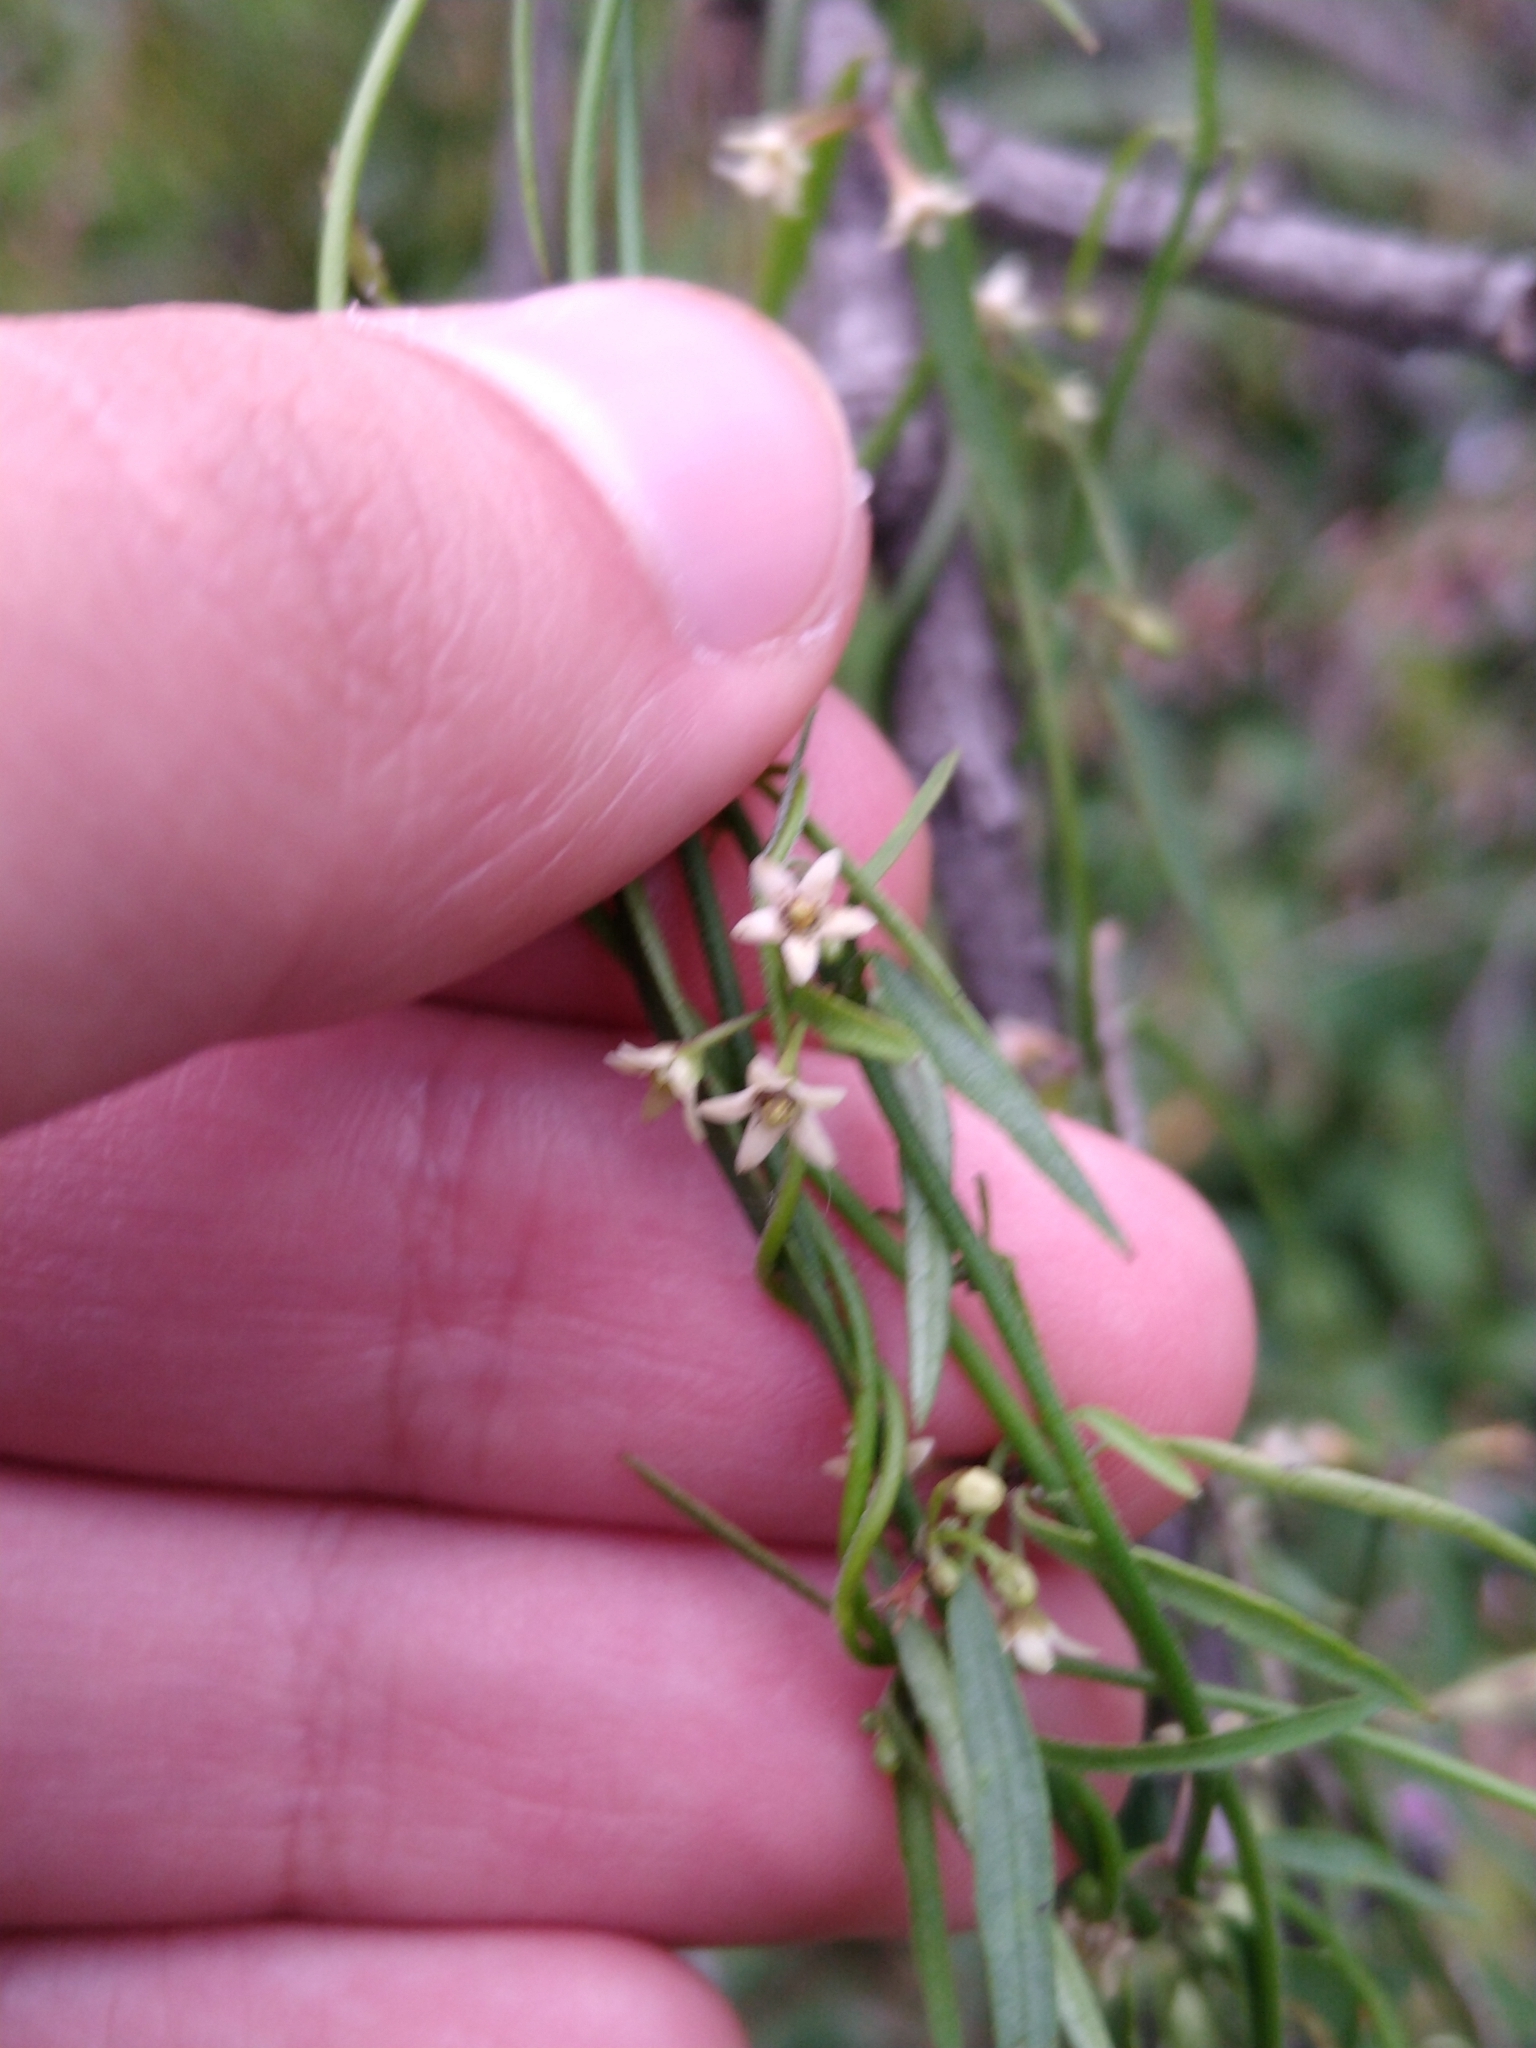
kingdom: Plantae
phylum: Tracheophyta
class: Magnoliopsida
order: Gentianales
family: Apocynaceae
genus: Orthosia
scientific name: Orthosia angustifolia
